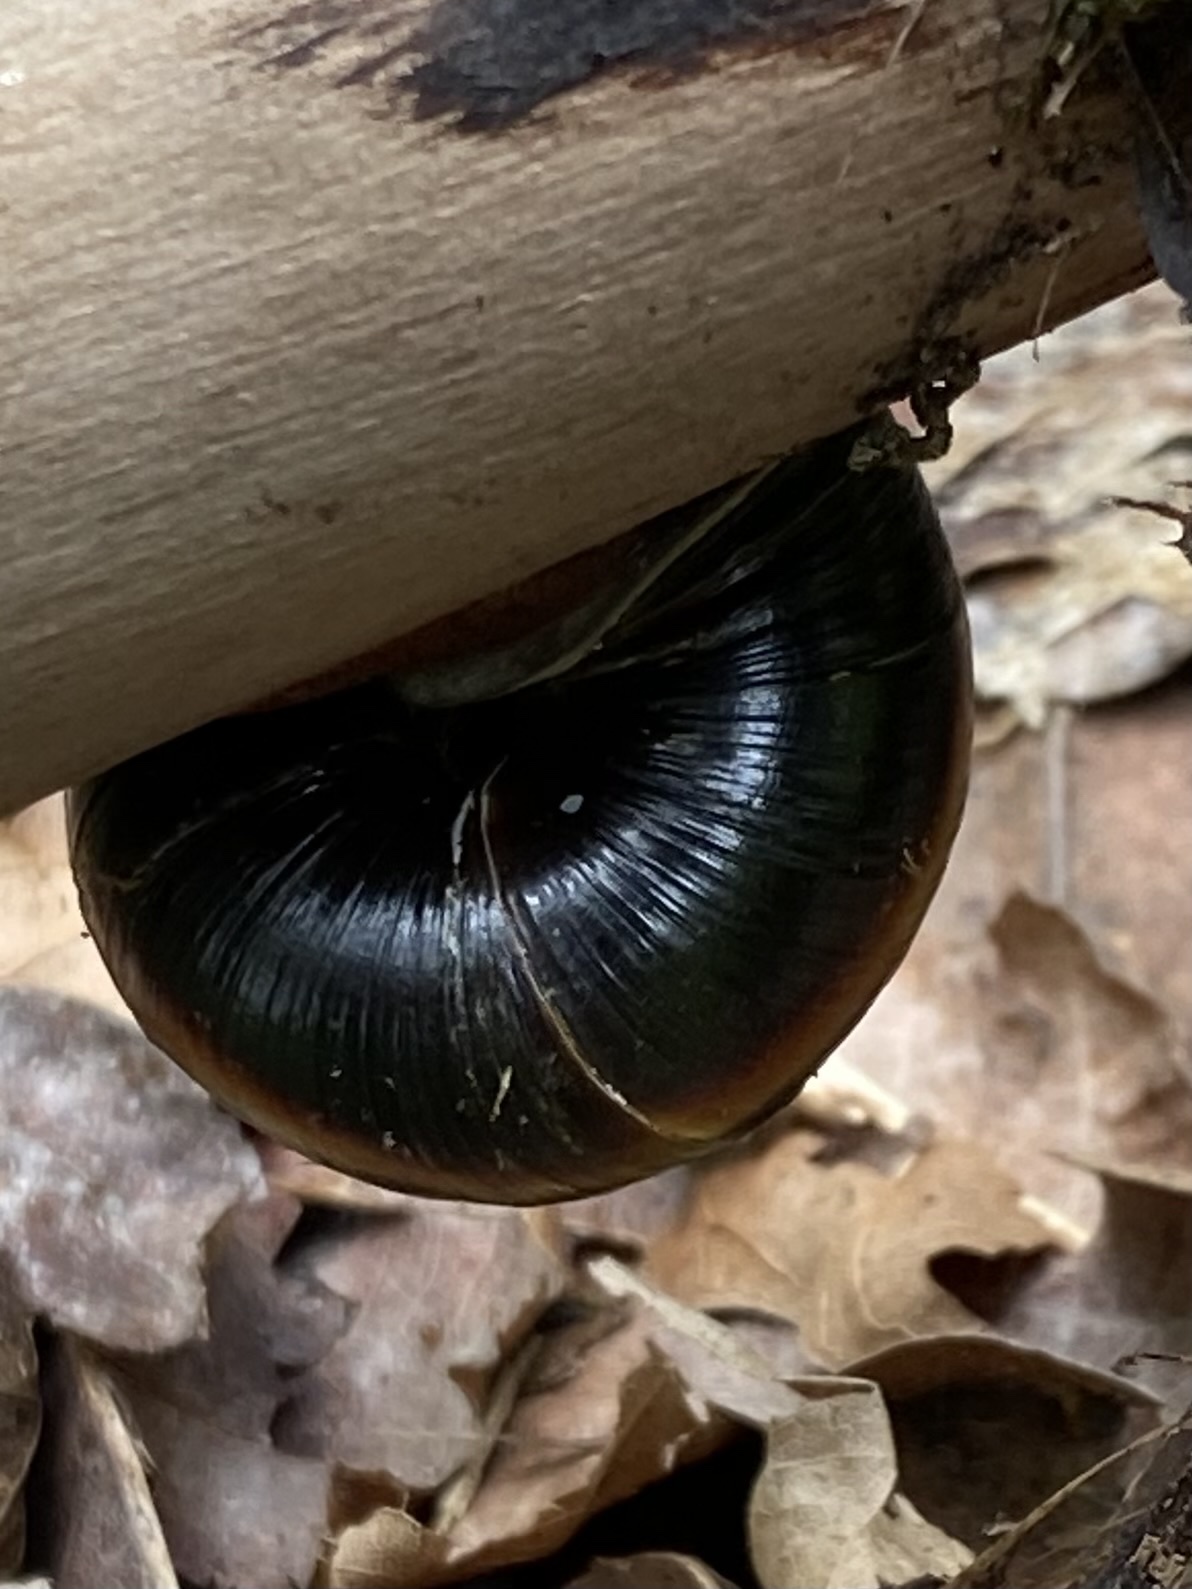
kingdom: Animalia
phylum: Mollusca
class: Gastropoda
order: Stylommatophora
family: Xanthonychidae
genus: Monadenia
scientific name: Monadenia fidelis
